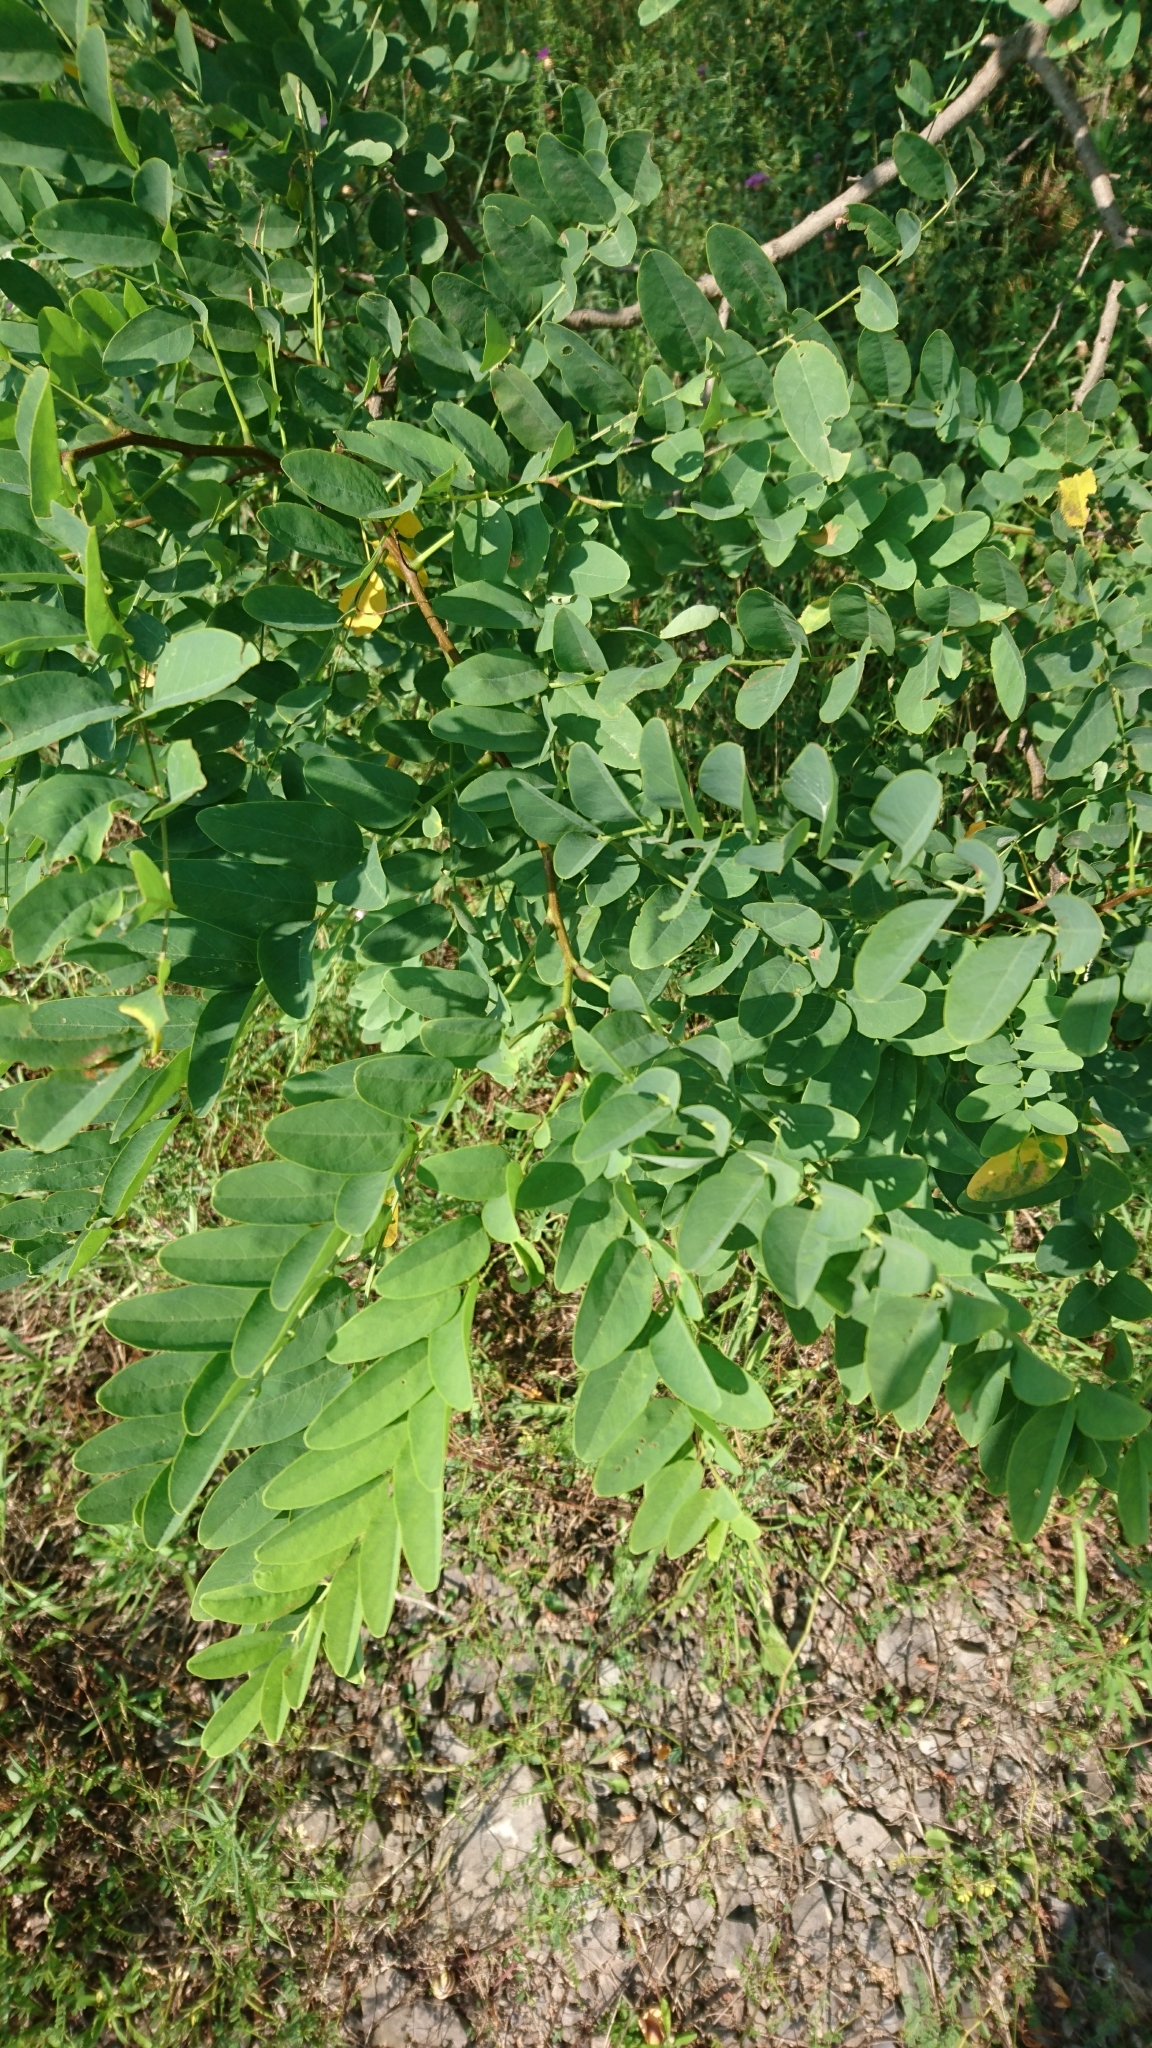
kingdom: Plantae
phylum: Tracheophyta
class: Magnoliopsida
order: Fabales
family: Fabaceae
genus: Robinia
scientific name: Robinia pseudoacacia
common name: Black locust
